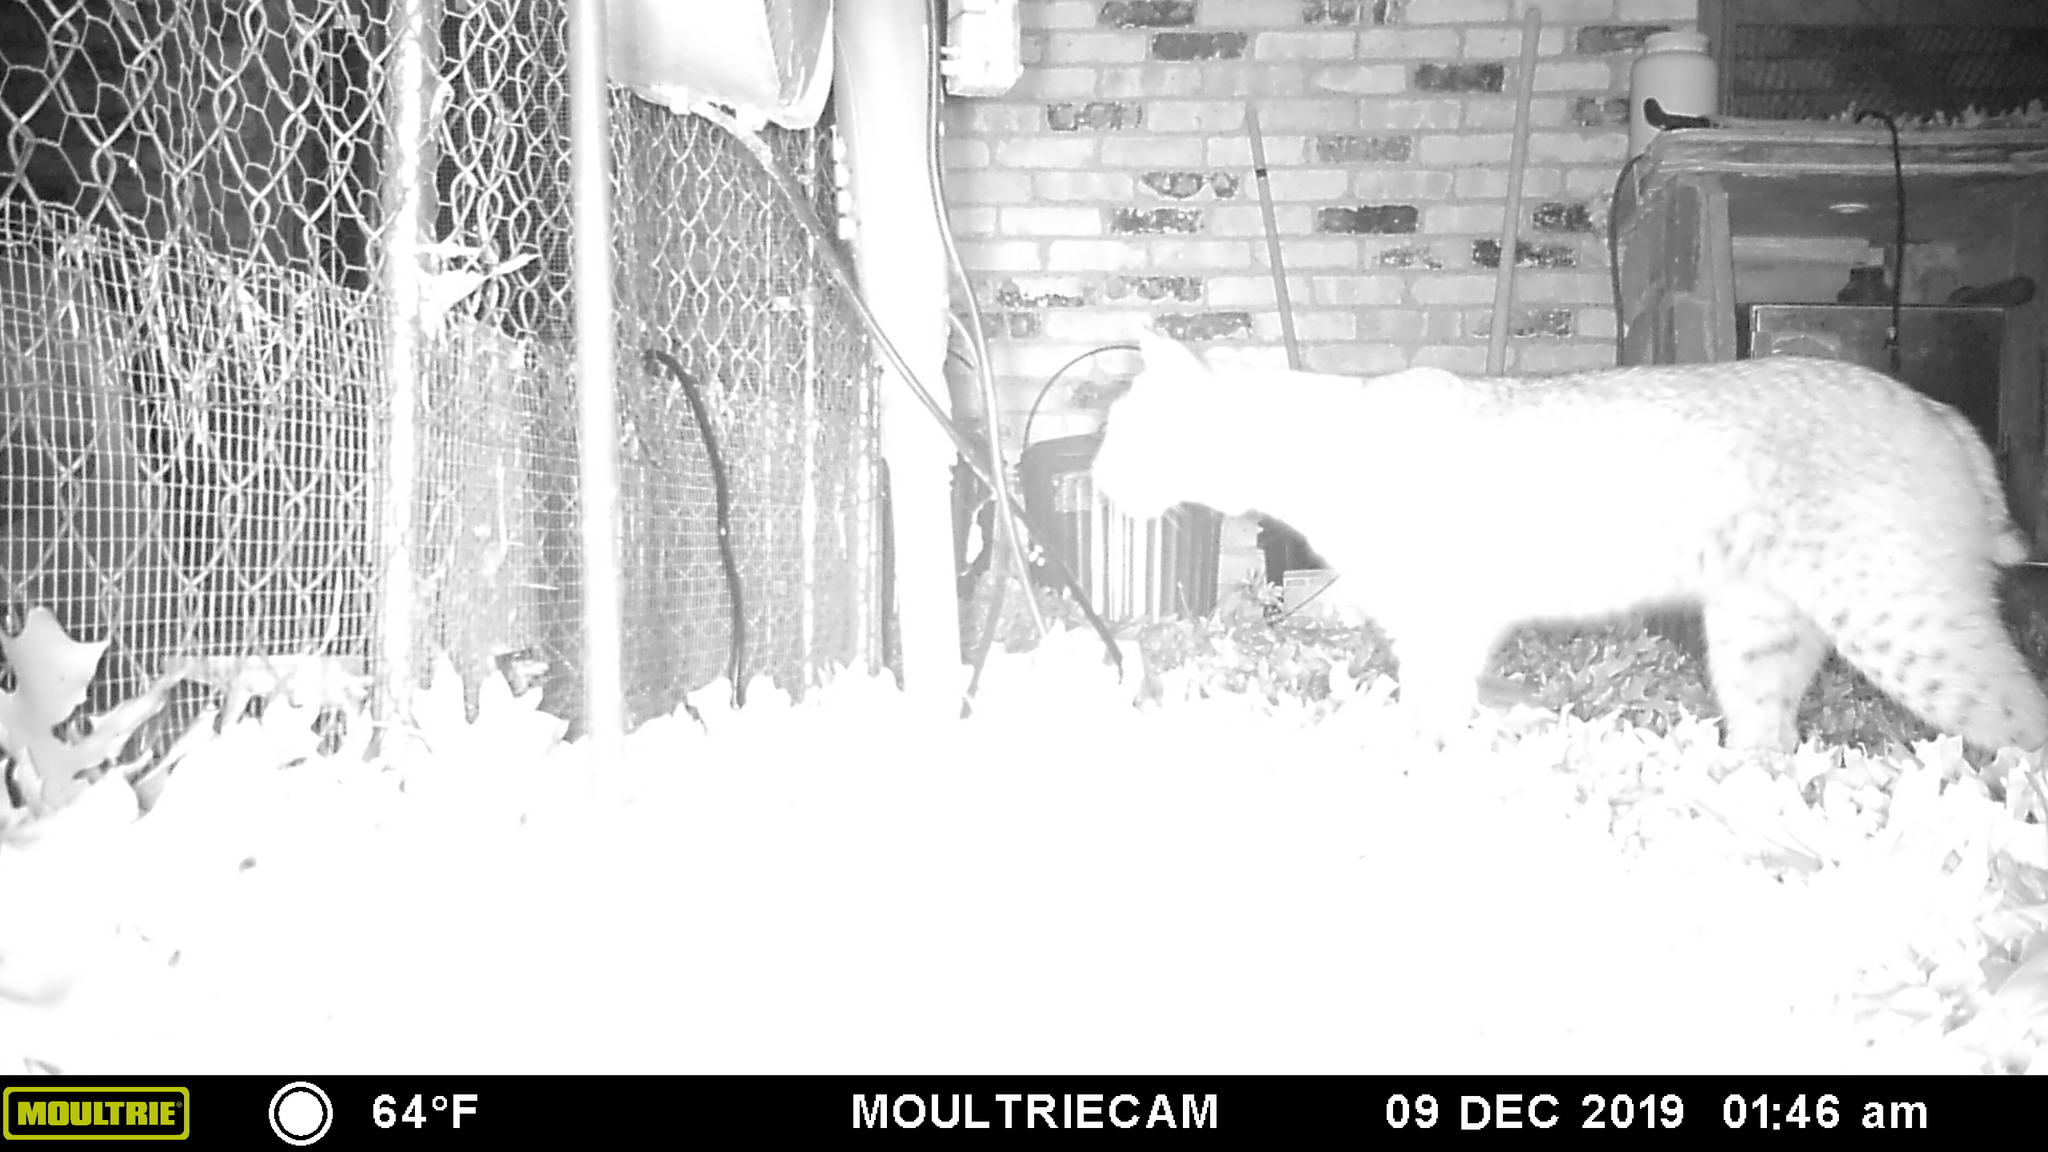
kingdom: Animalia
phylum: Chordata
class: Mammalia
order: Carnivora
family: Felidae
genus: Lynx
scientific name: Lynx rufus
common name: Bobcat
